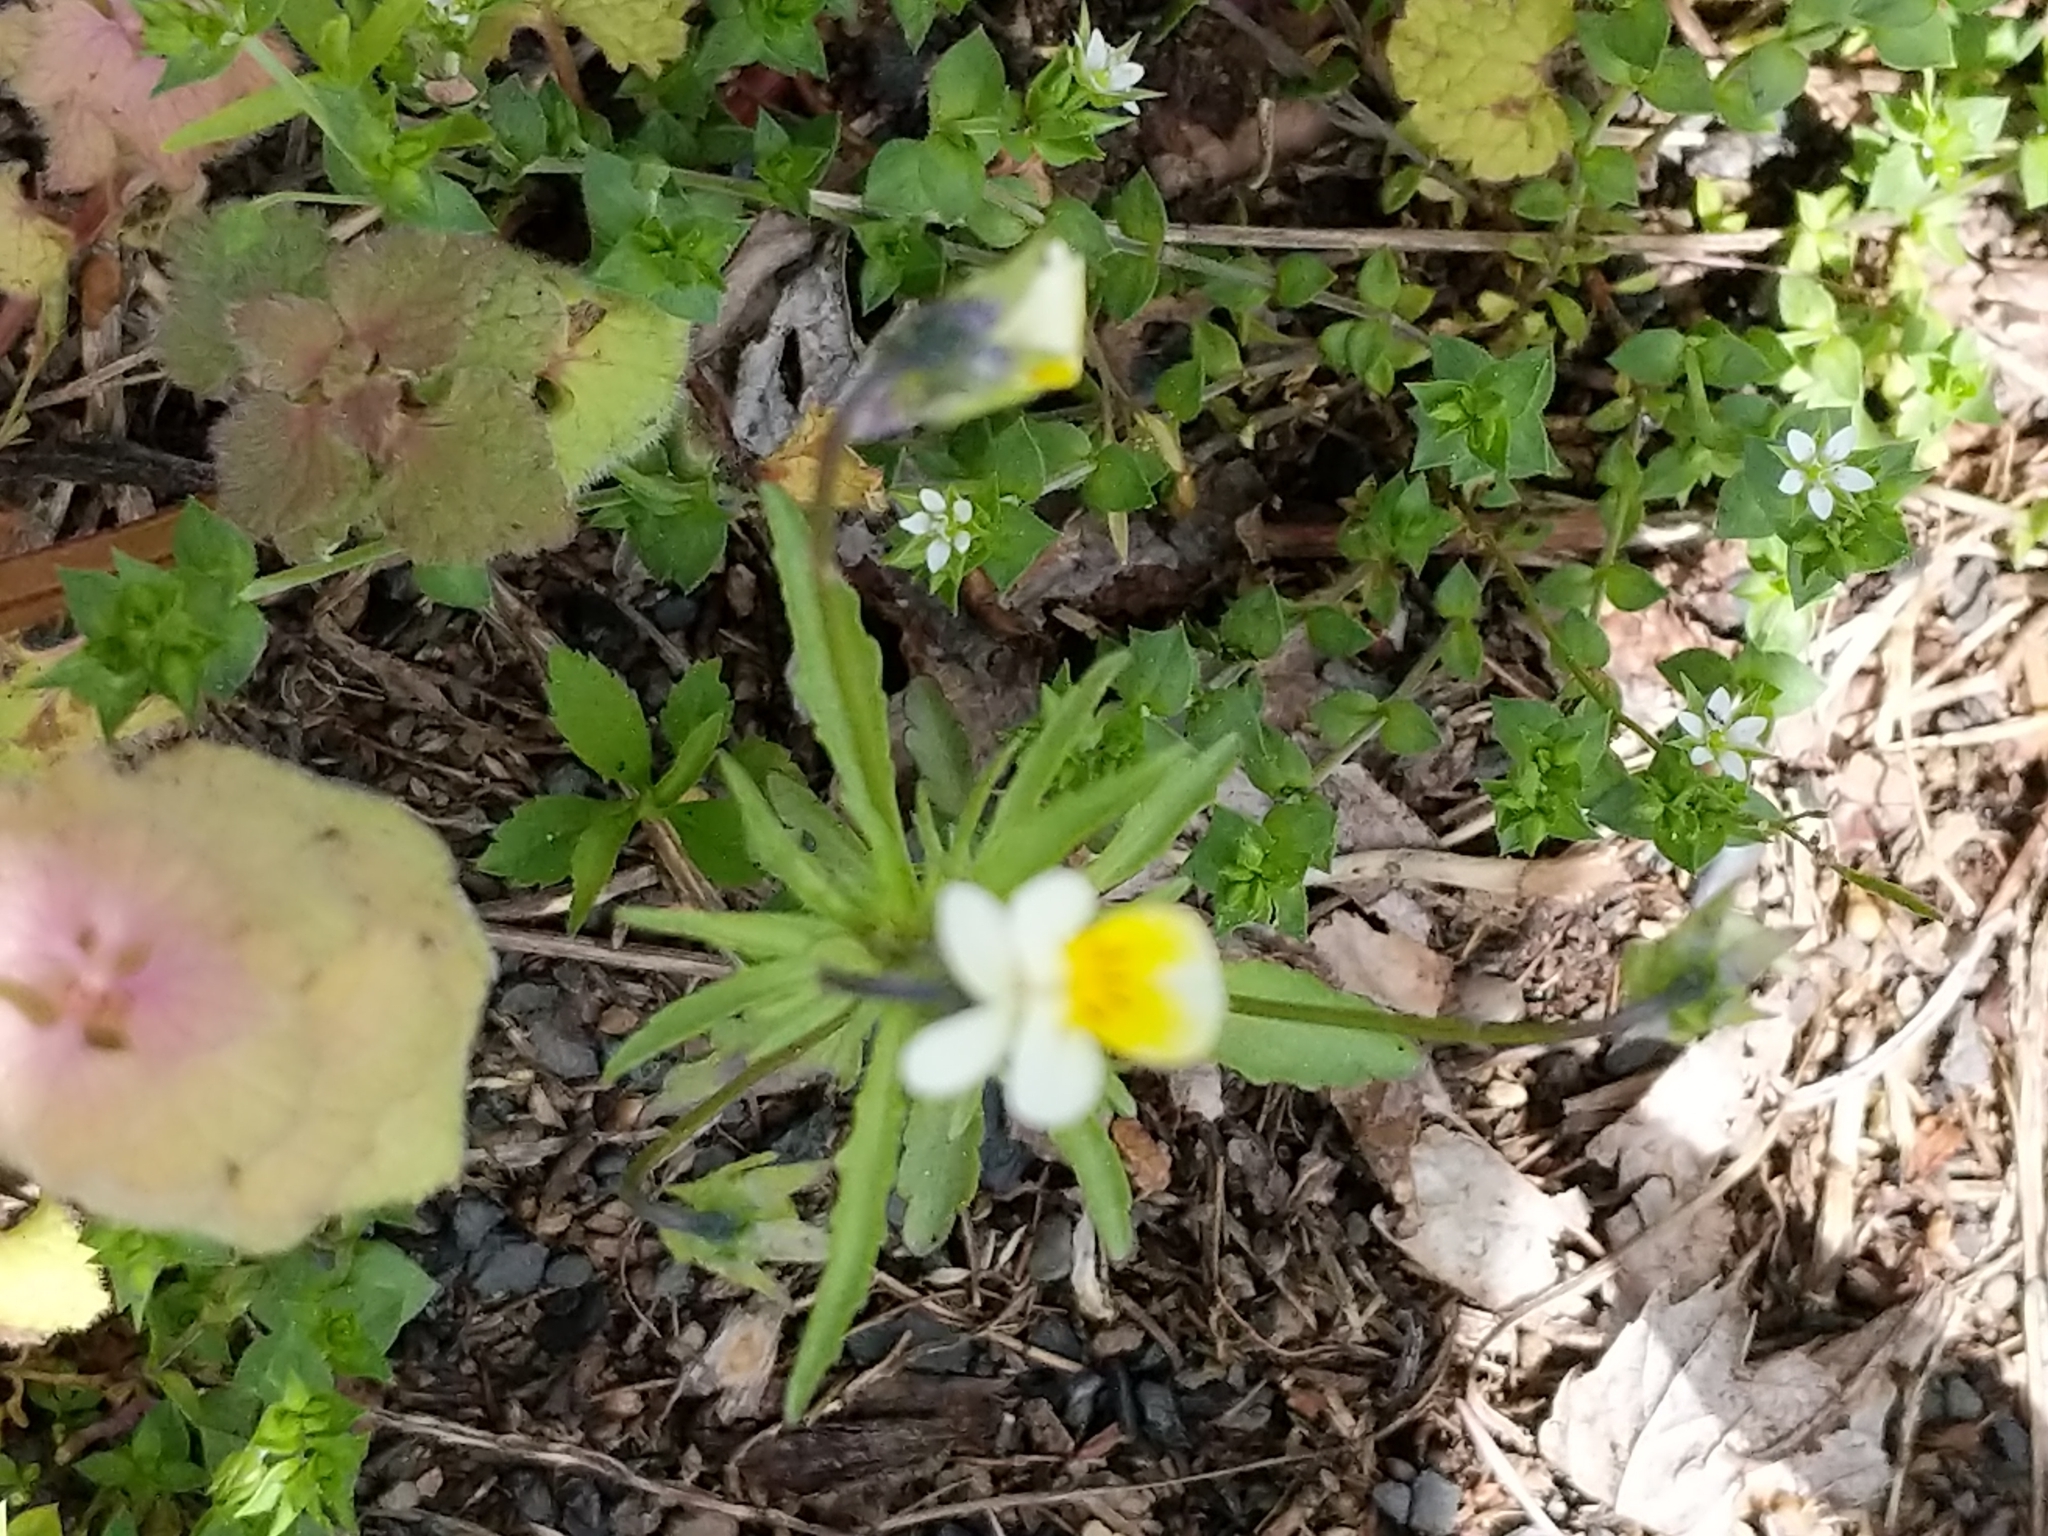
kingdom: Plantae
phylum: Tracheophyta
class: Magnoliopsida
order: Malpighiales
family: Violaceae
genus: Viola
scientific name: Viola arvensis
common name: Field pansy
